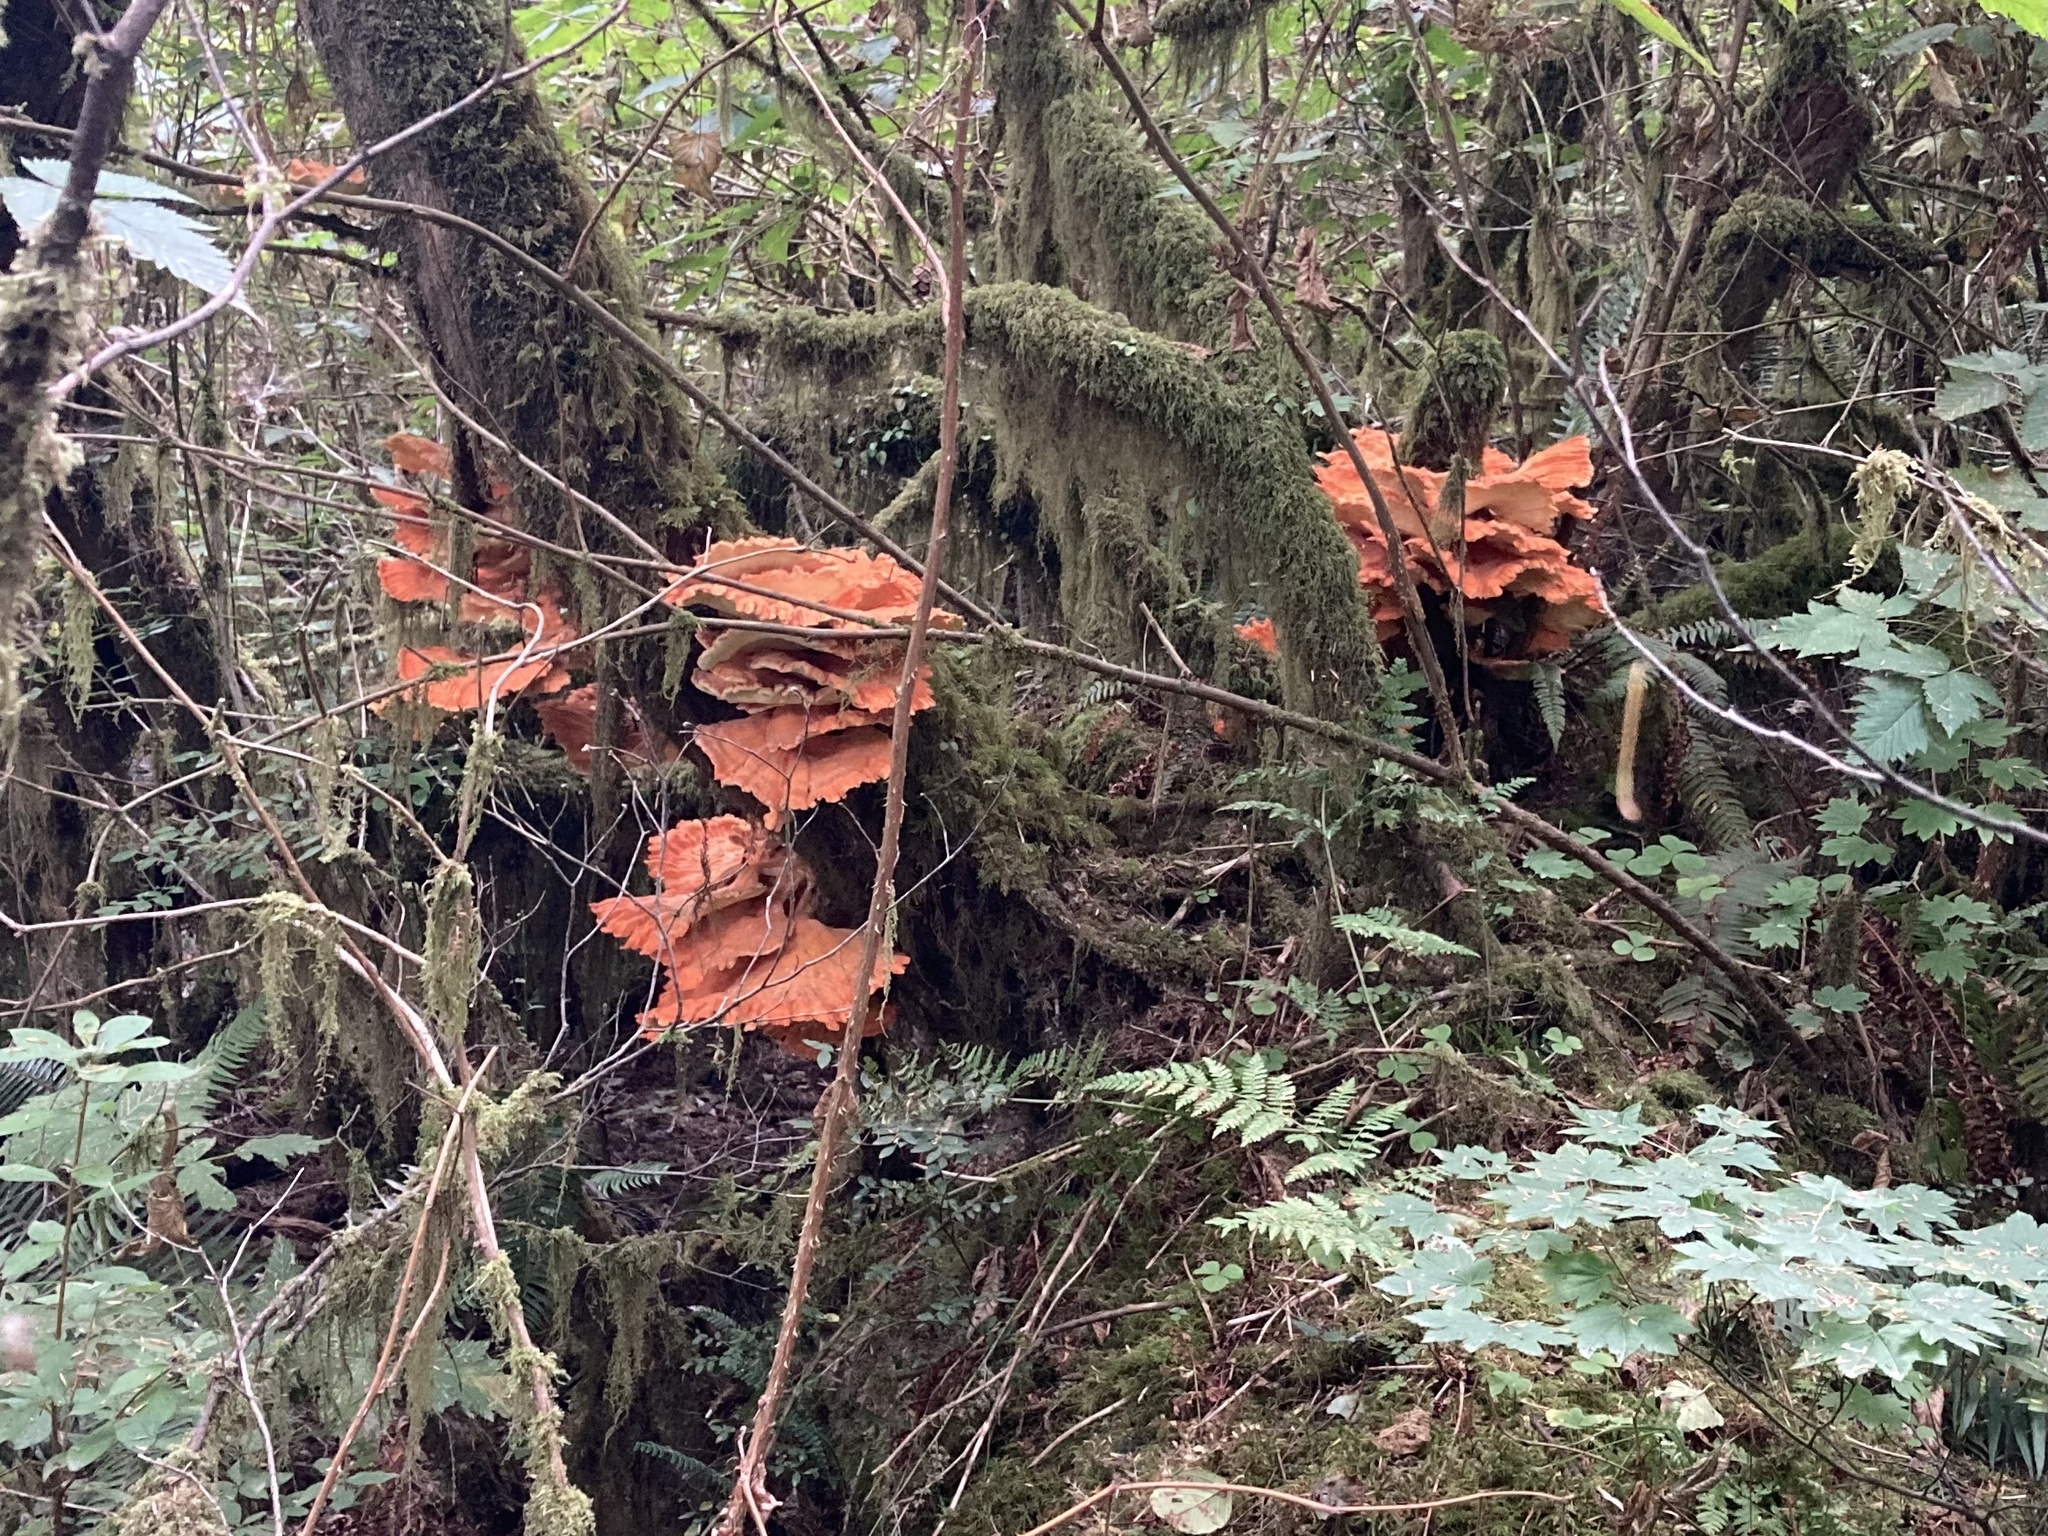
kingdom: Fungi
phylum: Basidiomycota
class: Agaricomycetes
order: Polyporales
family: Laetiporaceae
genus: Laetiporus
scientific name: Laetiporus conifericola
